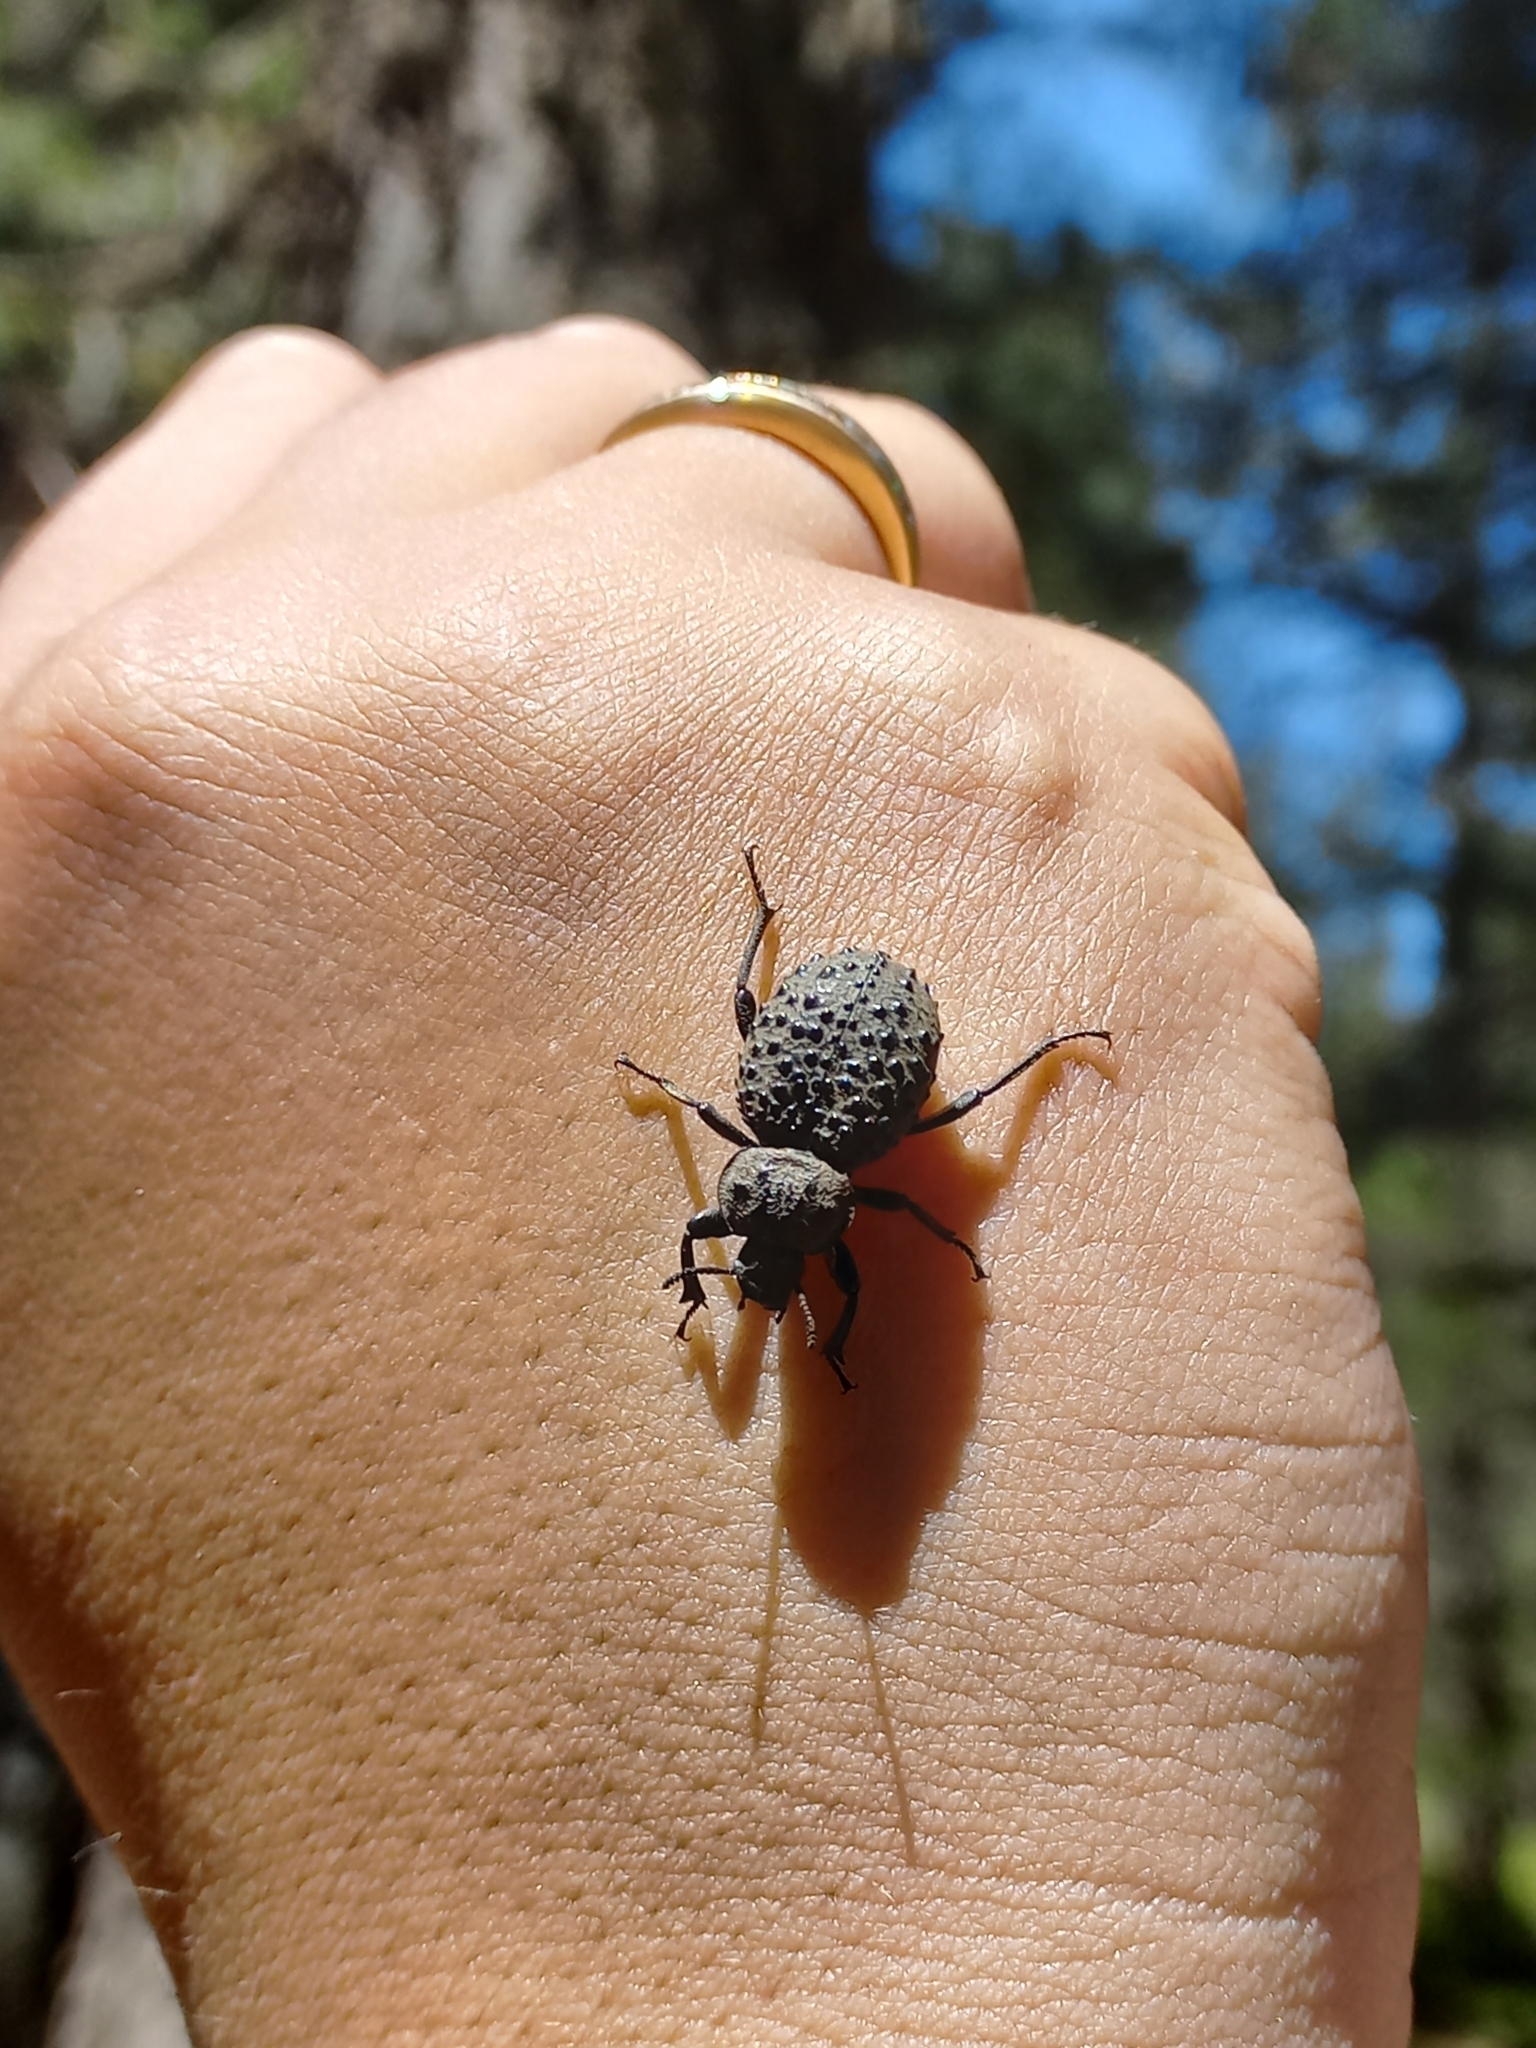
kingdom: Animalia
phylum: Arthropoda
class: Insecta
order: Coleoptera
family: Tenebrionidae
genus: Scotobius
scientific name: Scotobius pilularius
